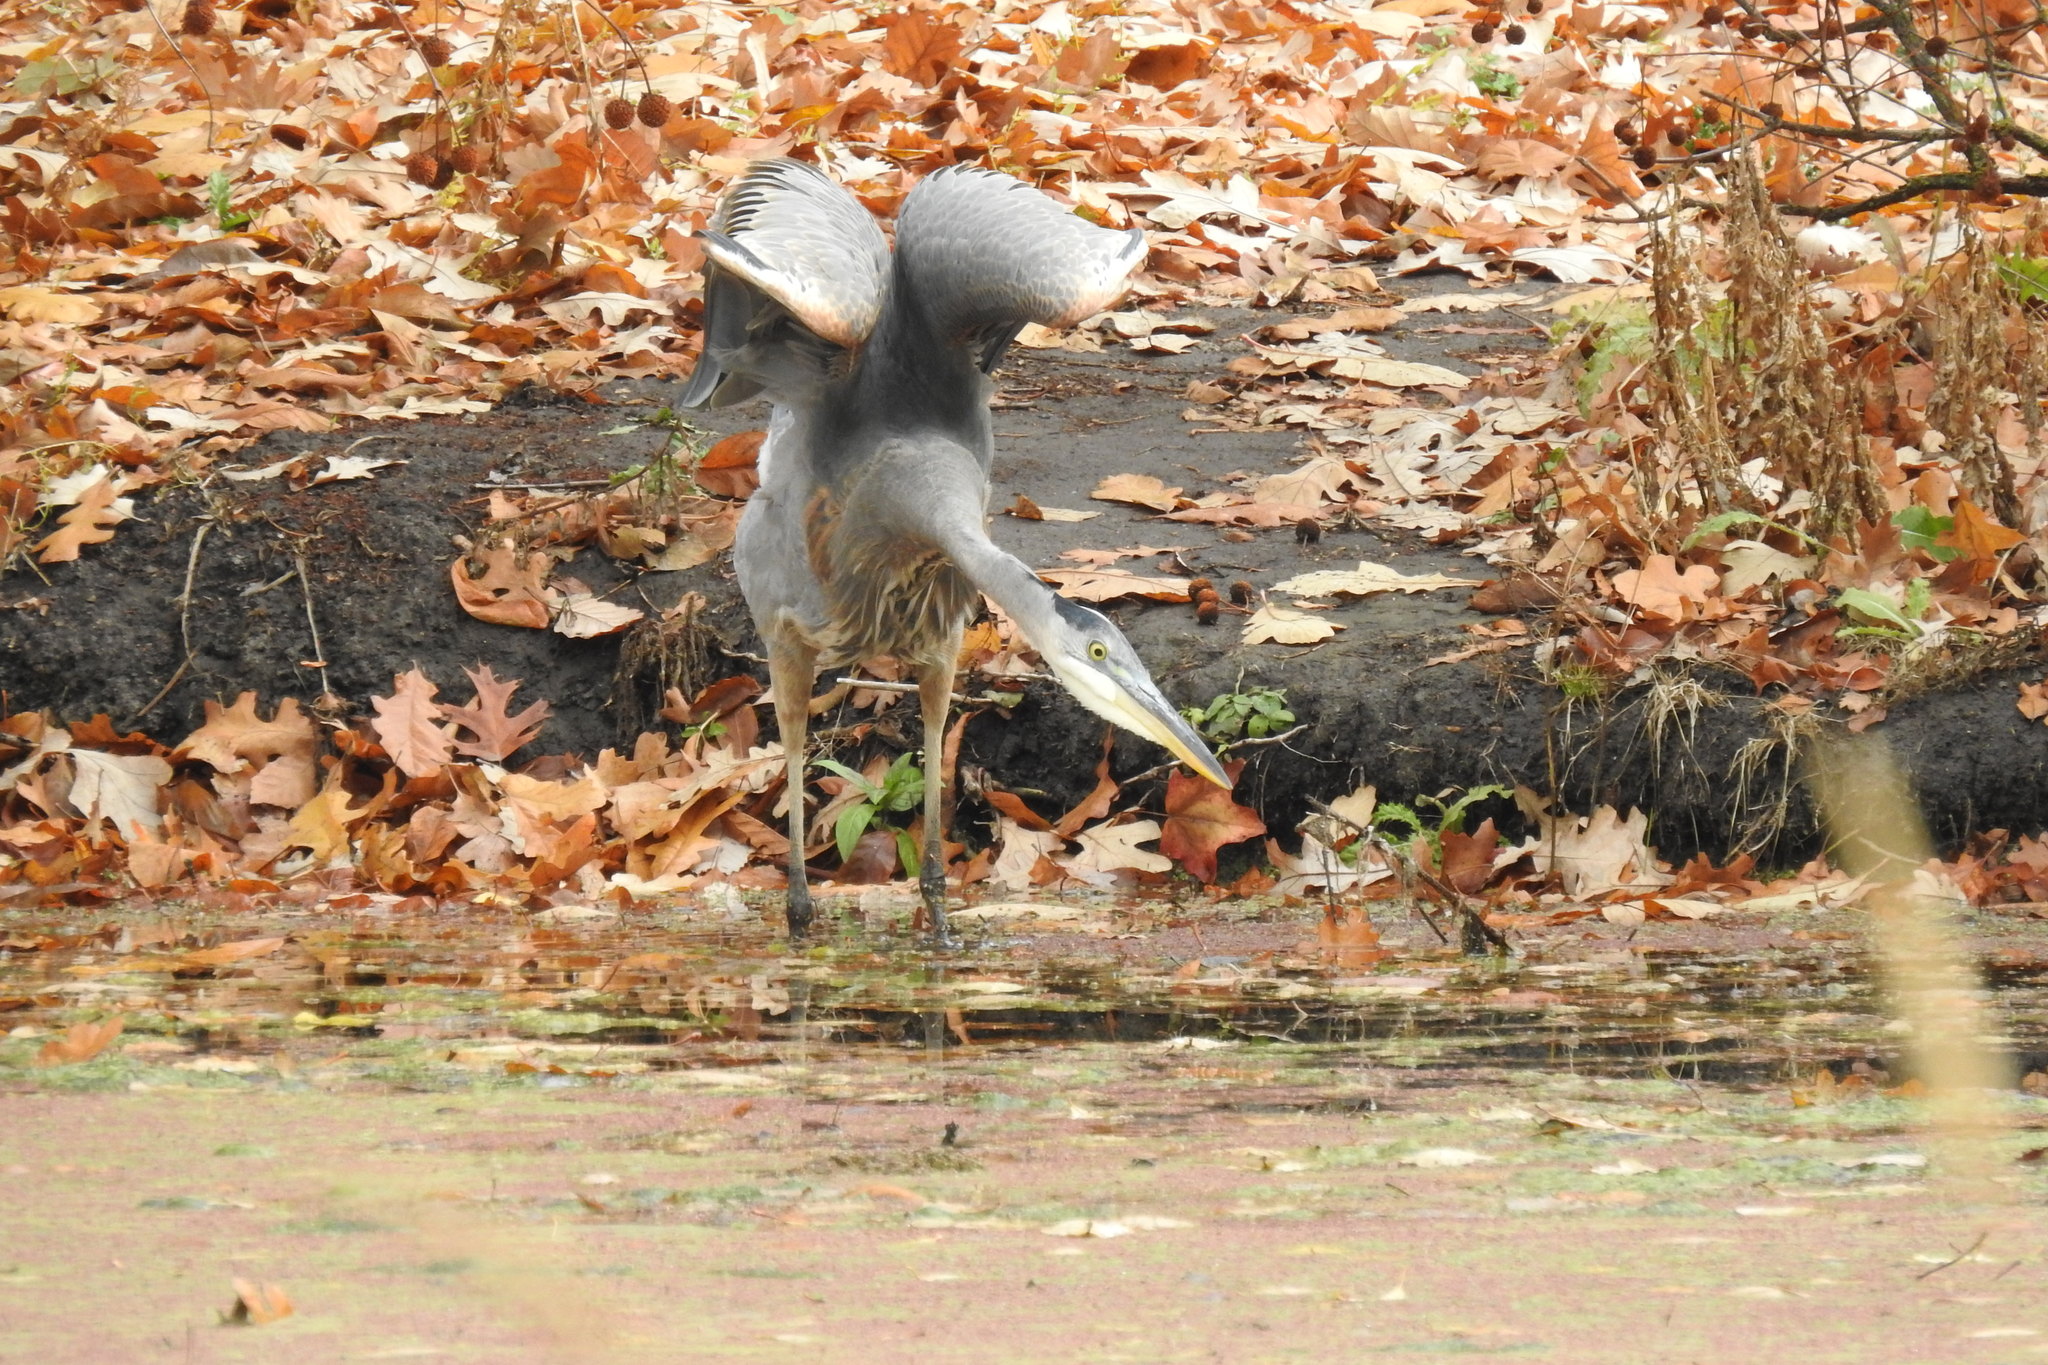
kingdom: Animalia
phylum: Chordata
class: Aves
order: Pelecaniformes
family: Ardeidae
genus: Ardea
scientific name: Ardea herodias
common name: Great blue heron
